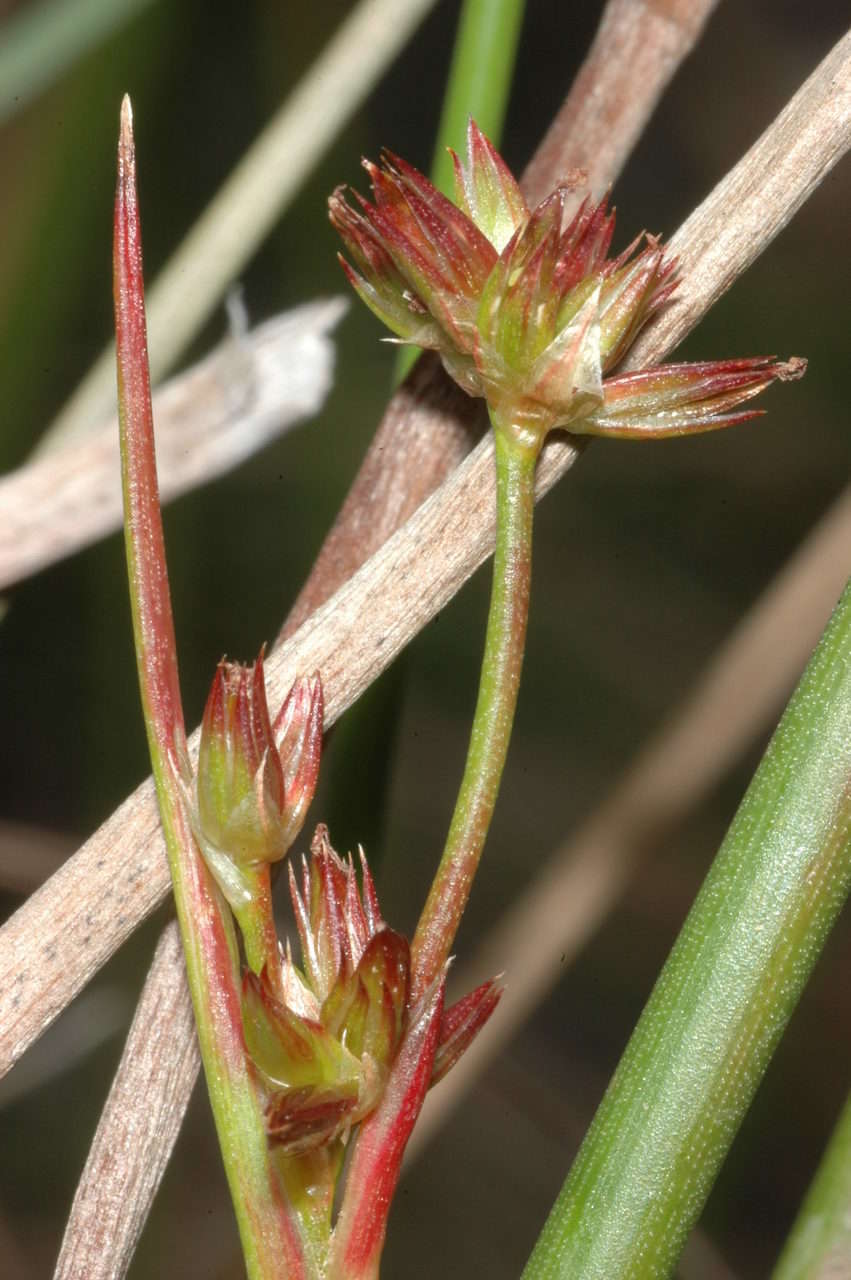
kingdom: Plantae
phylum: Tracheophyta
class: Liliopsida
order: Poales
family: Juncaceae
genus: Juncus
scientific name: Juncus holoschoenus
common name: Joint-leaf rush
